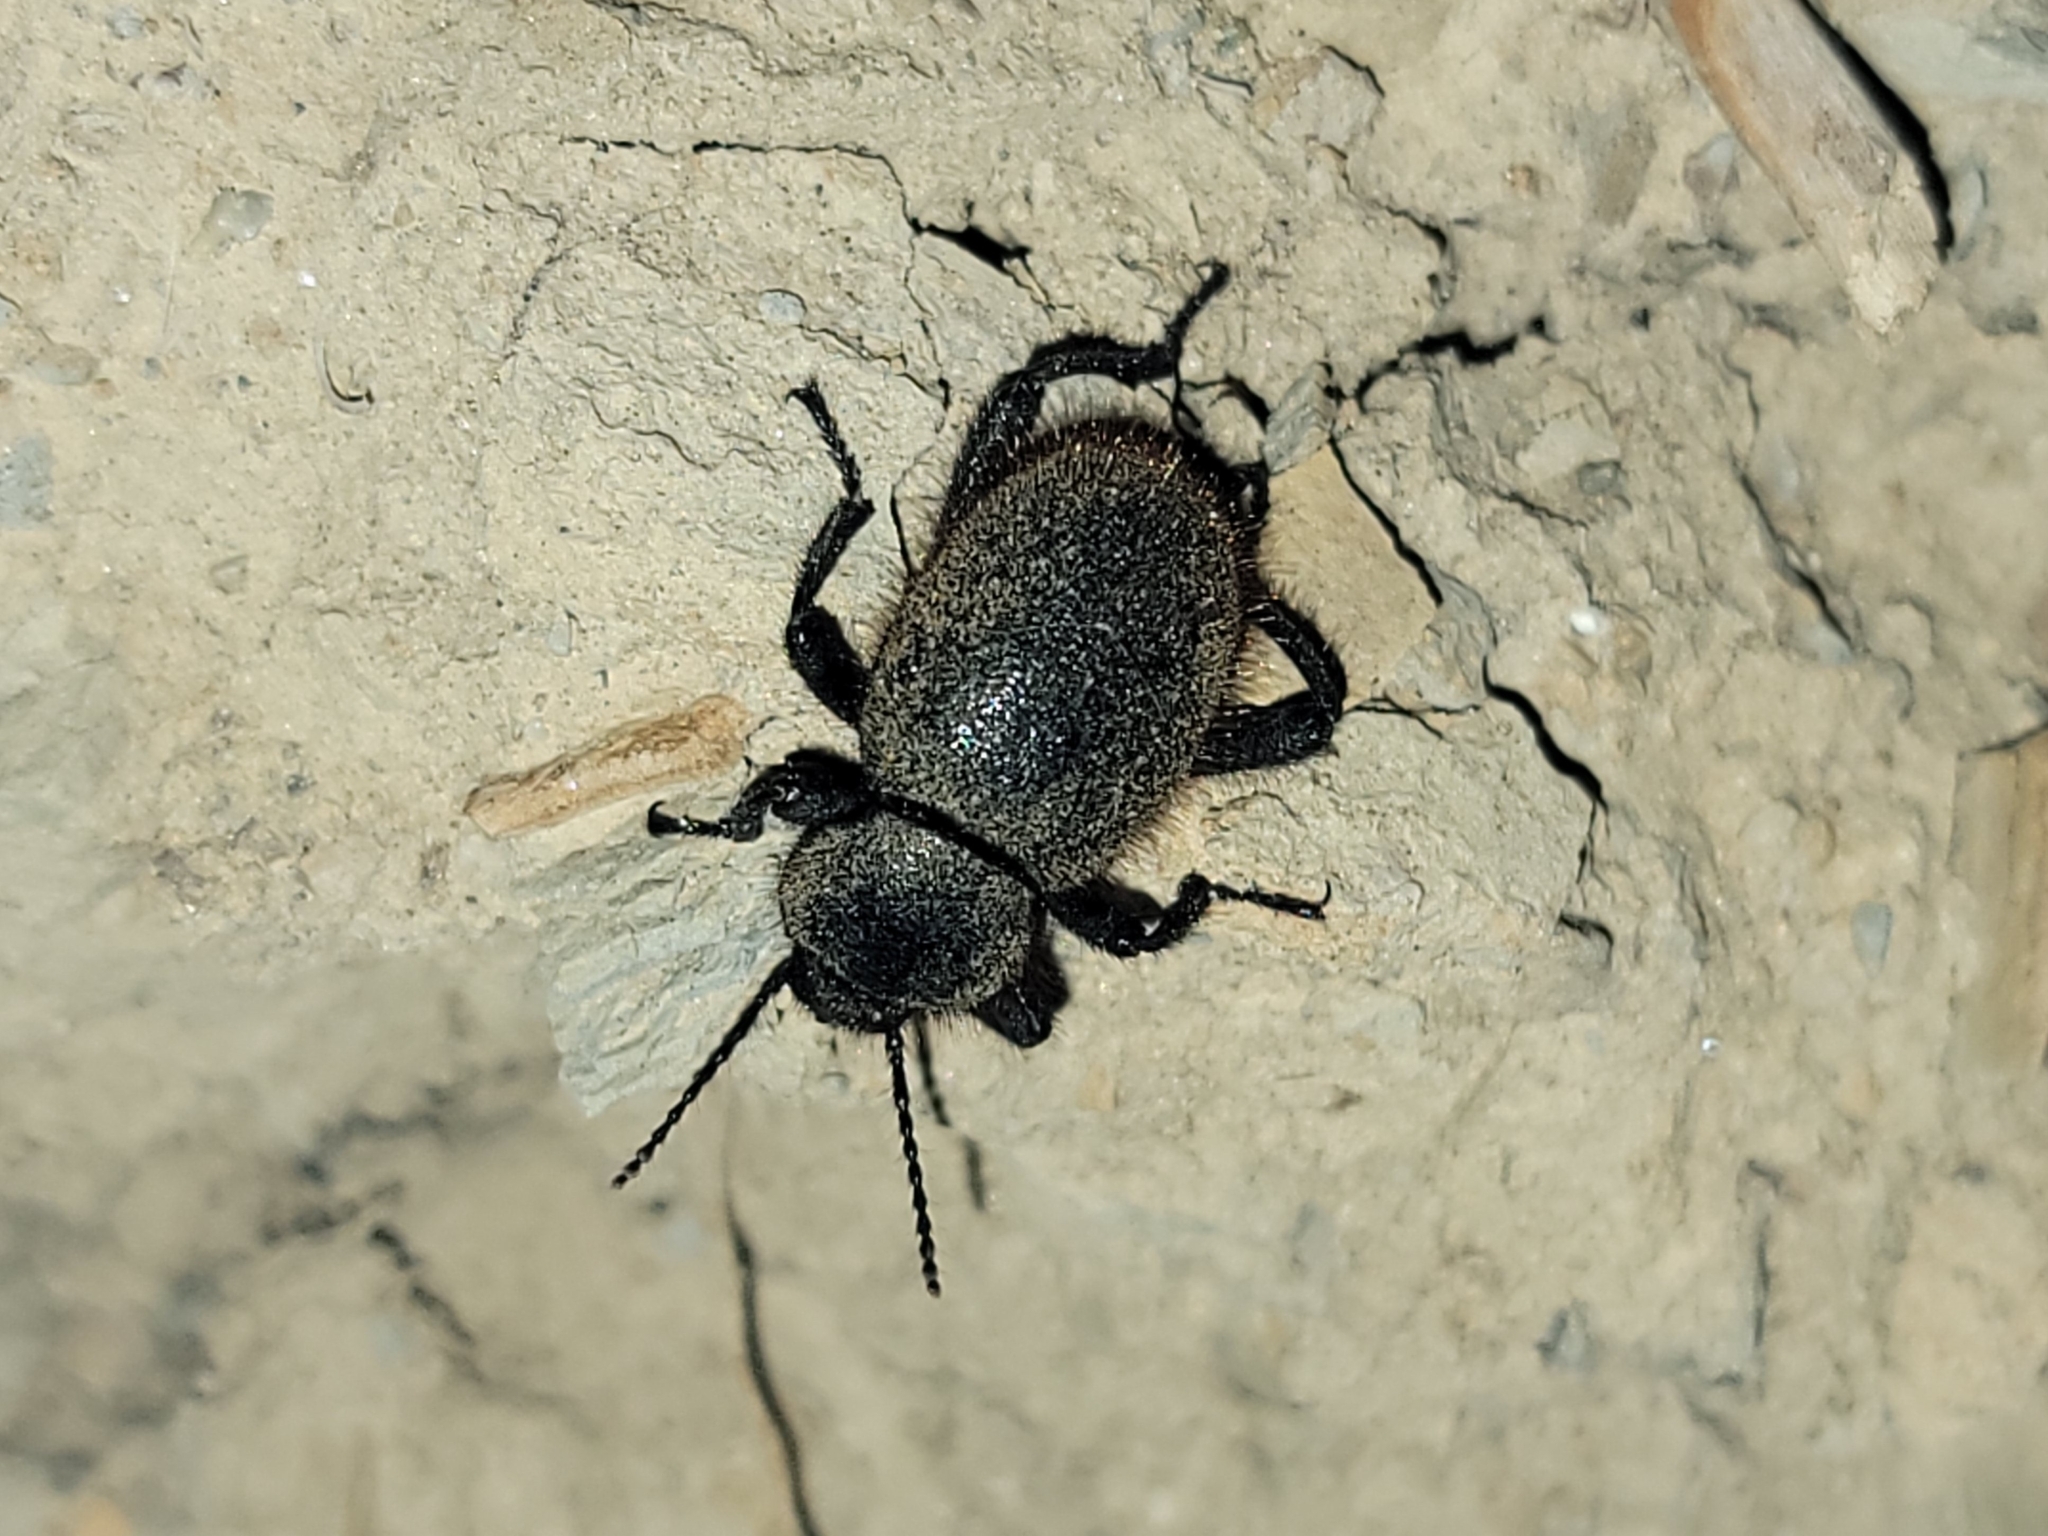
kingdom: Animalia
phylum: Arthropoda
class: Insecta
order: Coleoptera
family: Tenebrionidae
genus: Eleodes
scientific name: Eleodes osculans
